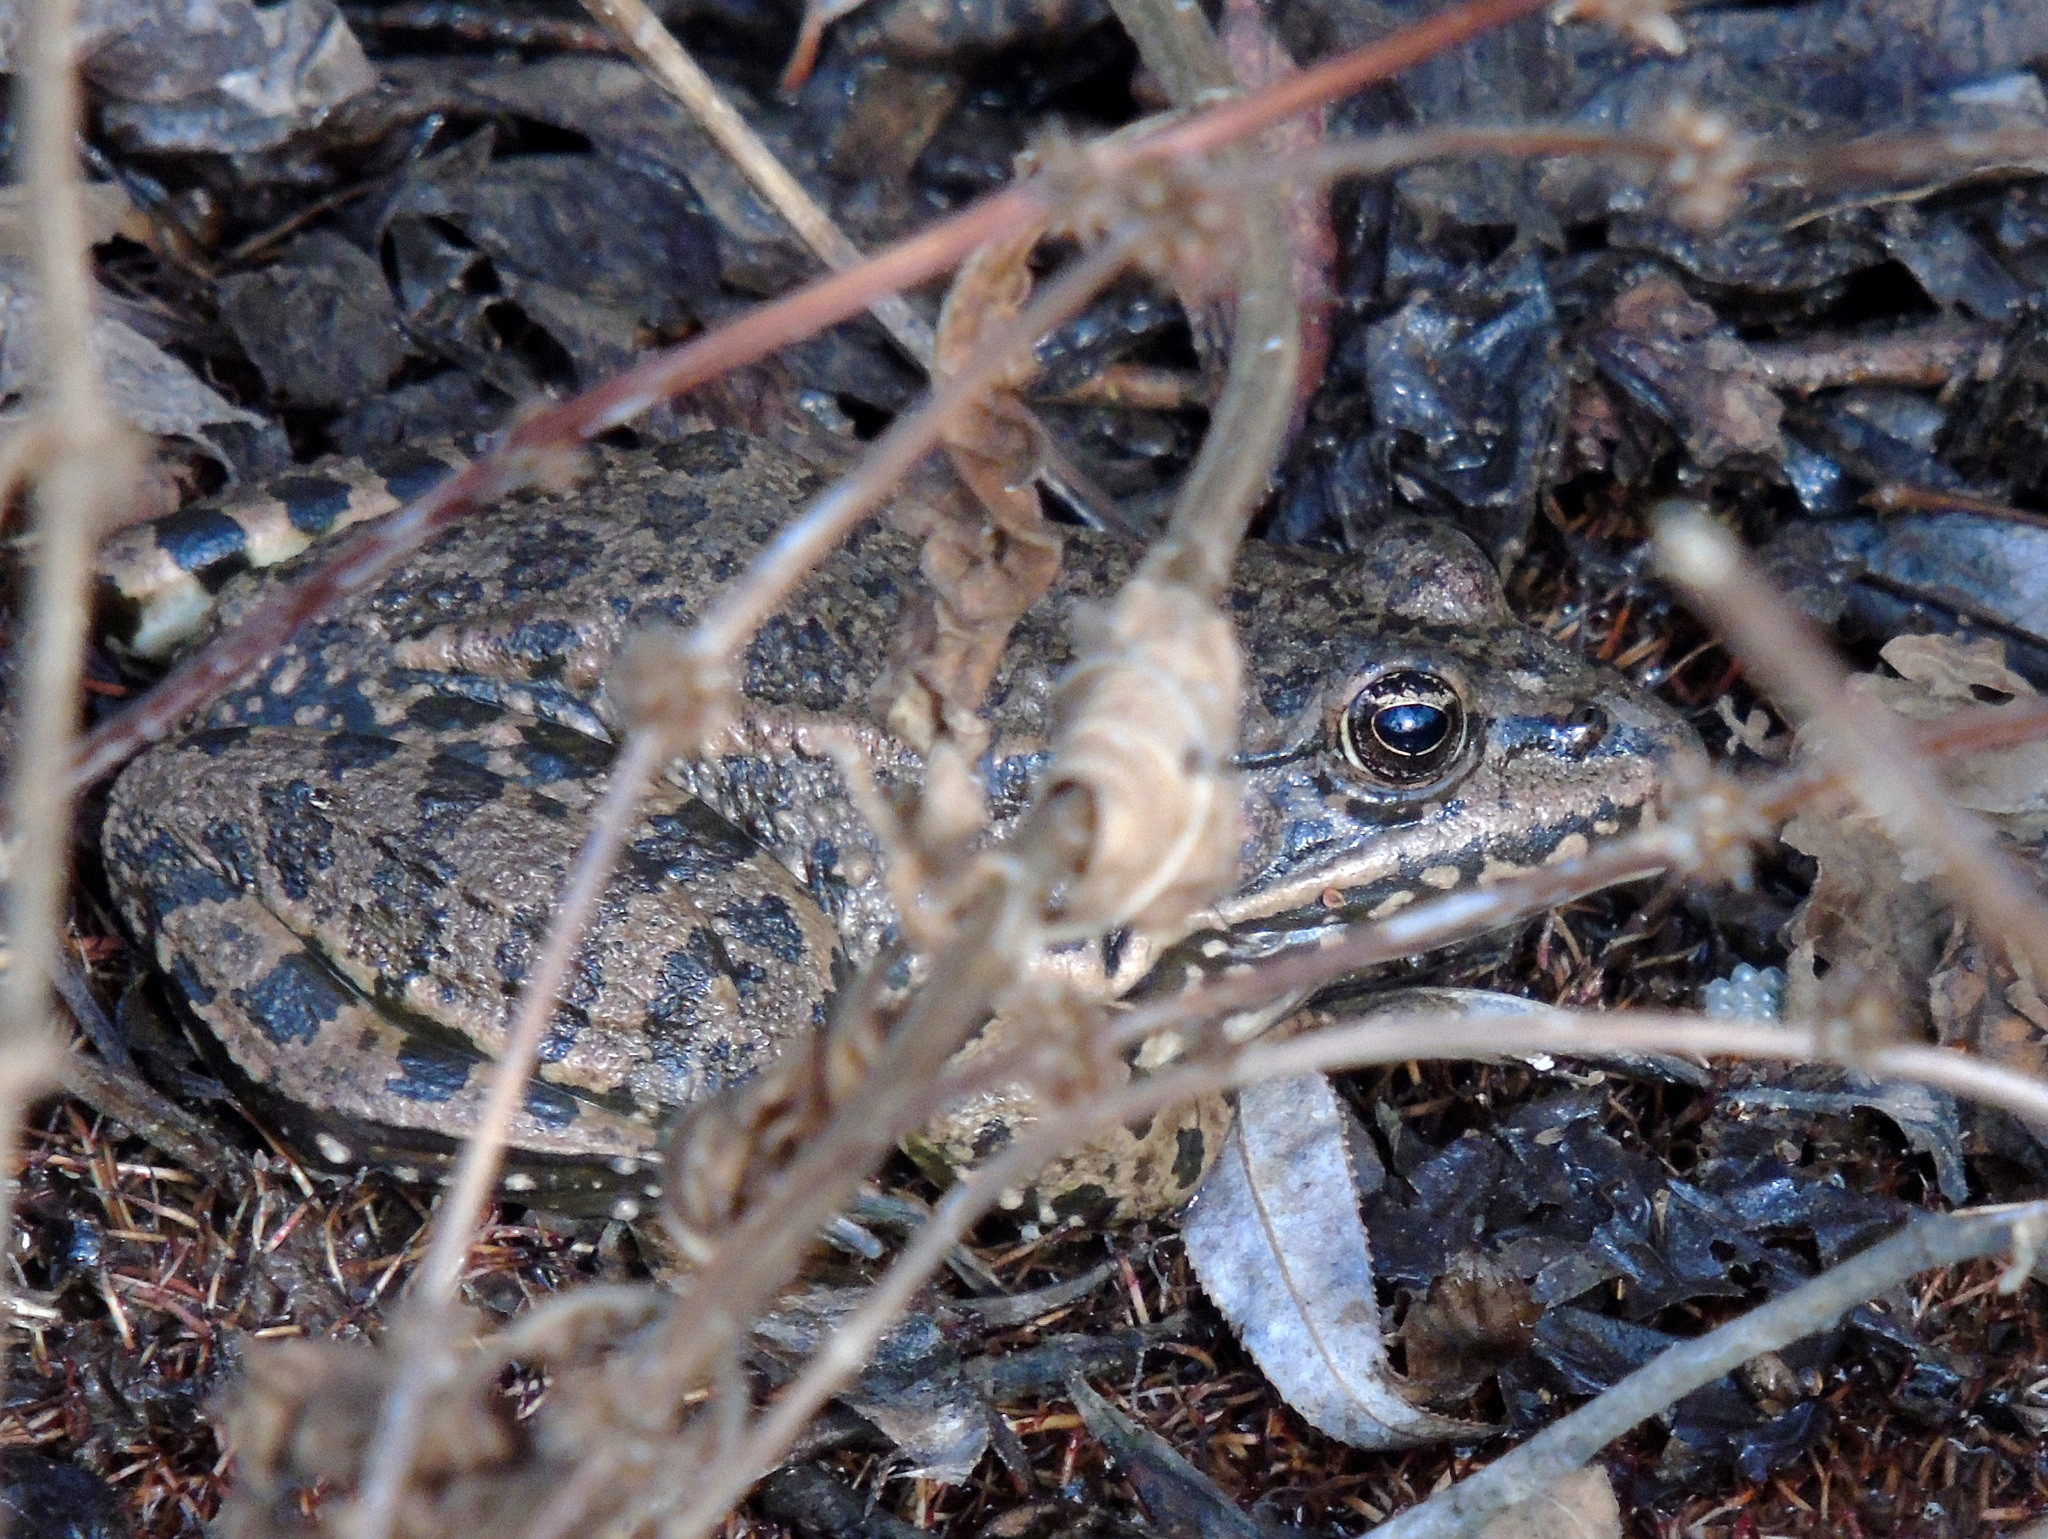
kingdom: Animalia
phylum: Chordata
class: Amphibia
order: Anura
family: Ranidae
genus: Pelophylax
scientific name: Pelophylax ridibundus
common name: Marsh frog
